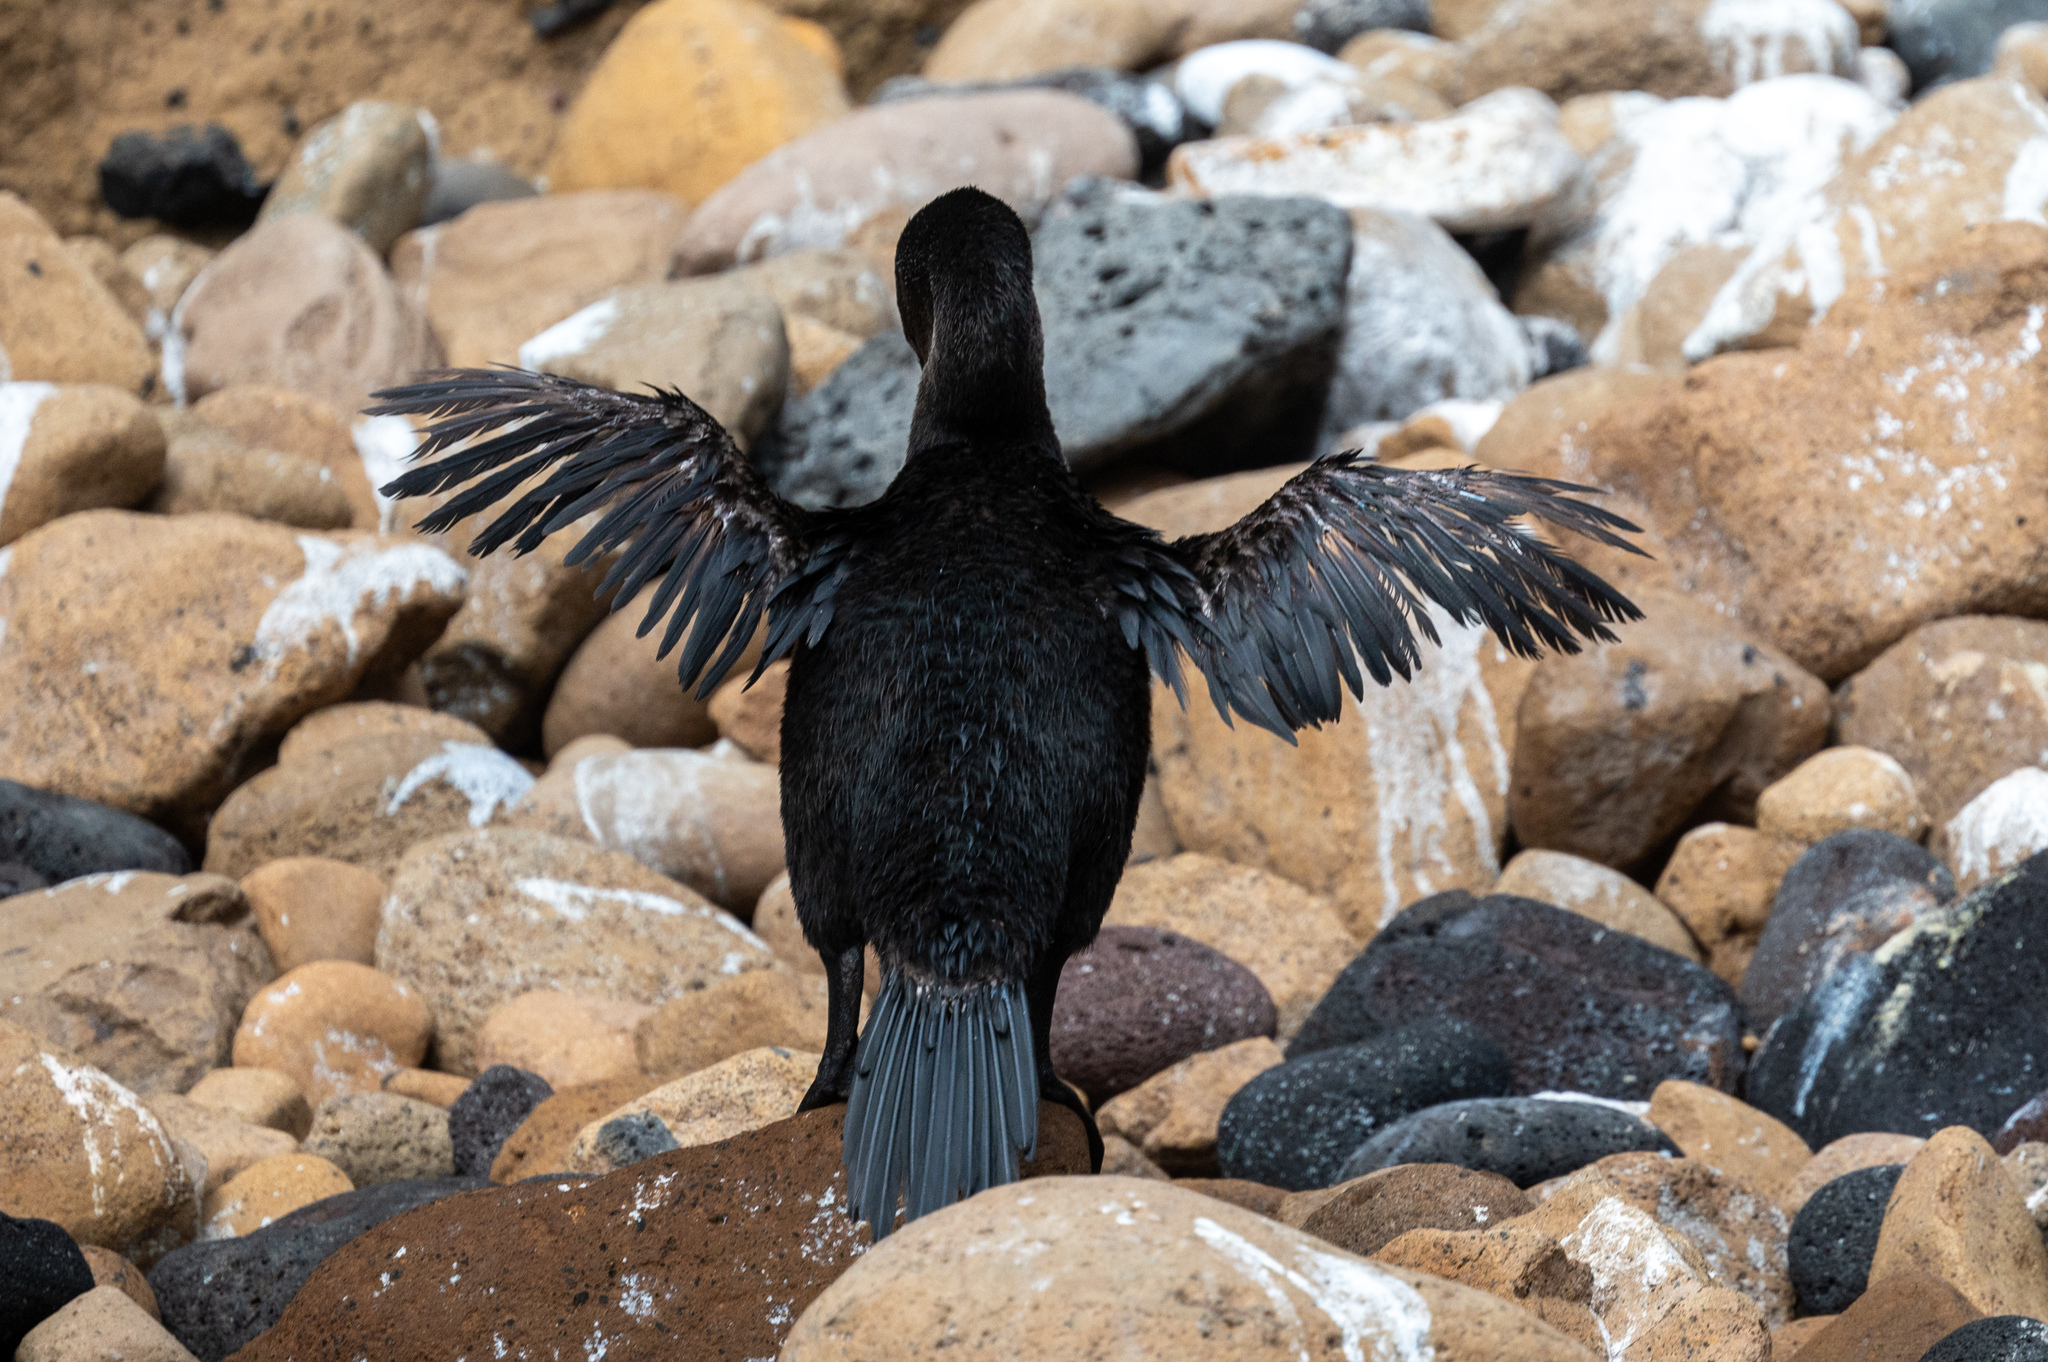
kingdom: Animalia
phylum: Chordata
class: Aves
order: Suliformes
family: Phalacrocoracidae
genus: Phalacrocorax
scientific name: Phalacrocorax harrisi
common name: Flightless cormorant
